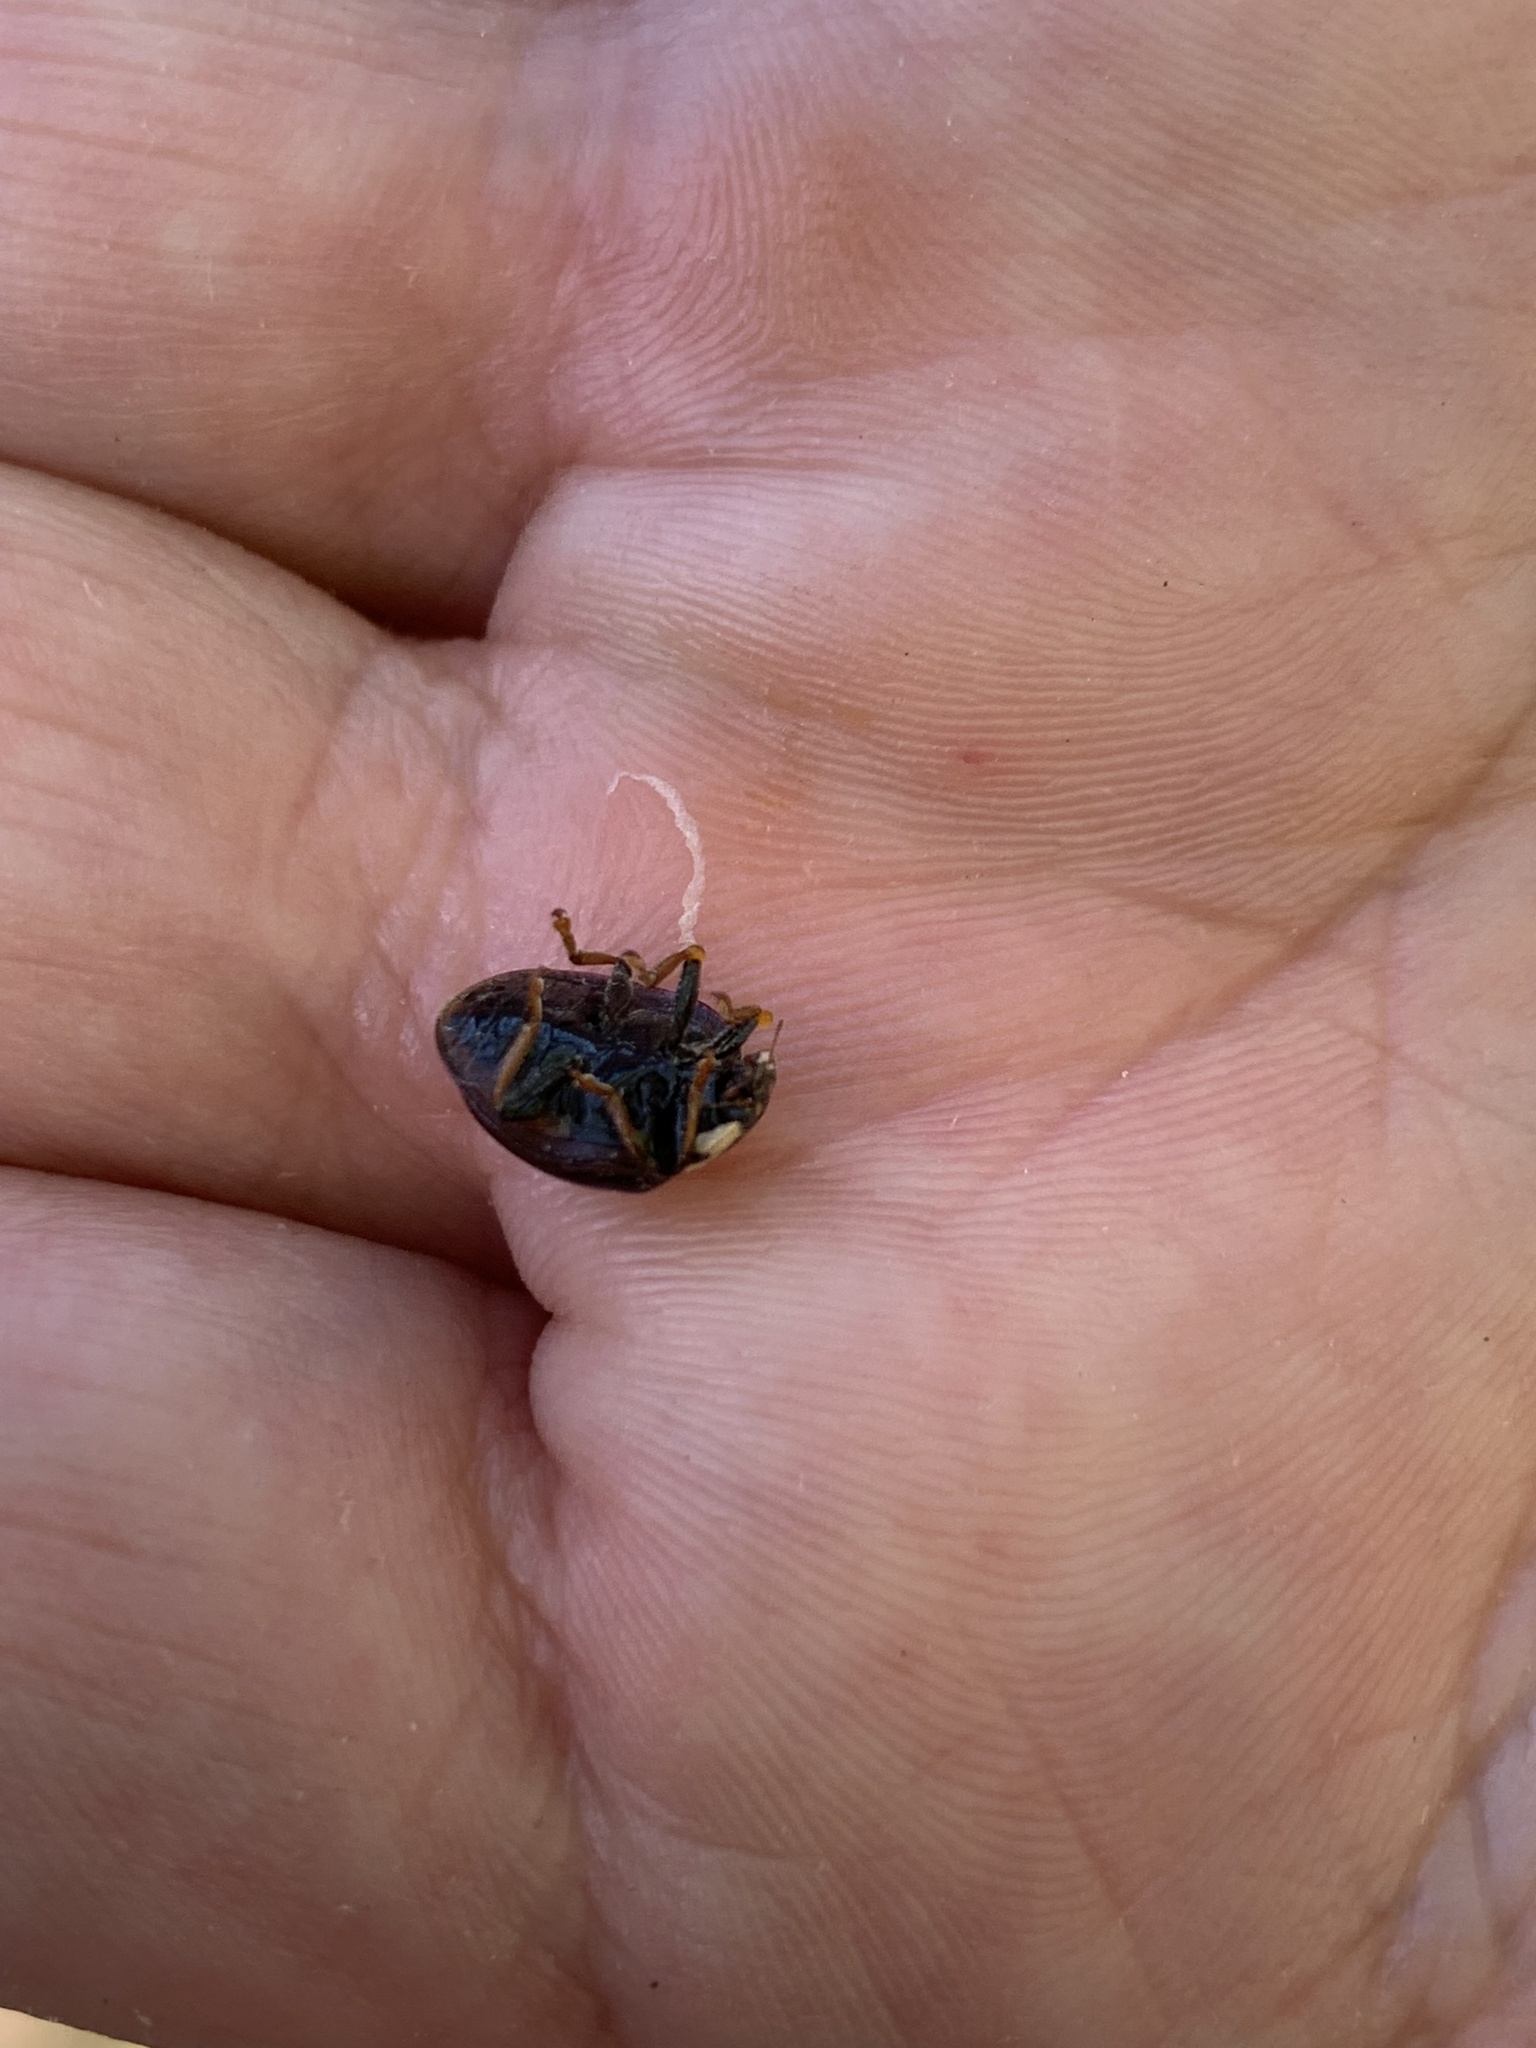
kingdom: Animalia
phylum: Arthropoda
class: Insecta
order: Coleoptera
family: Coccinellidae
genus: Anatis
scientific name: Anatis labiculata
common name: Fifteen-spotted lady beetle
